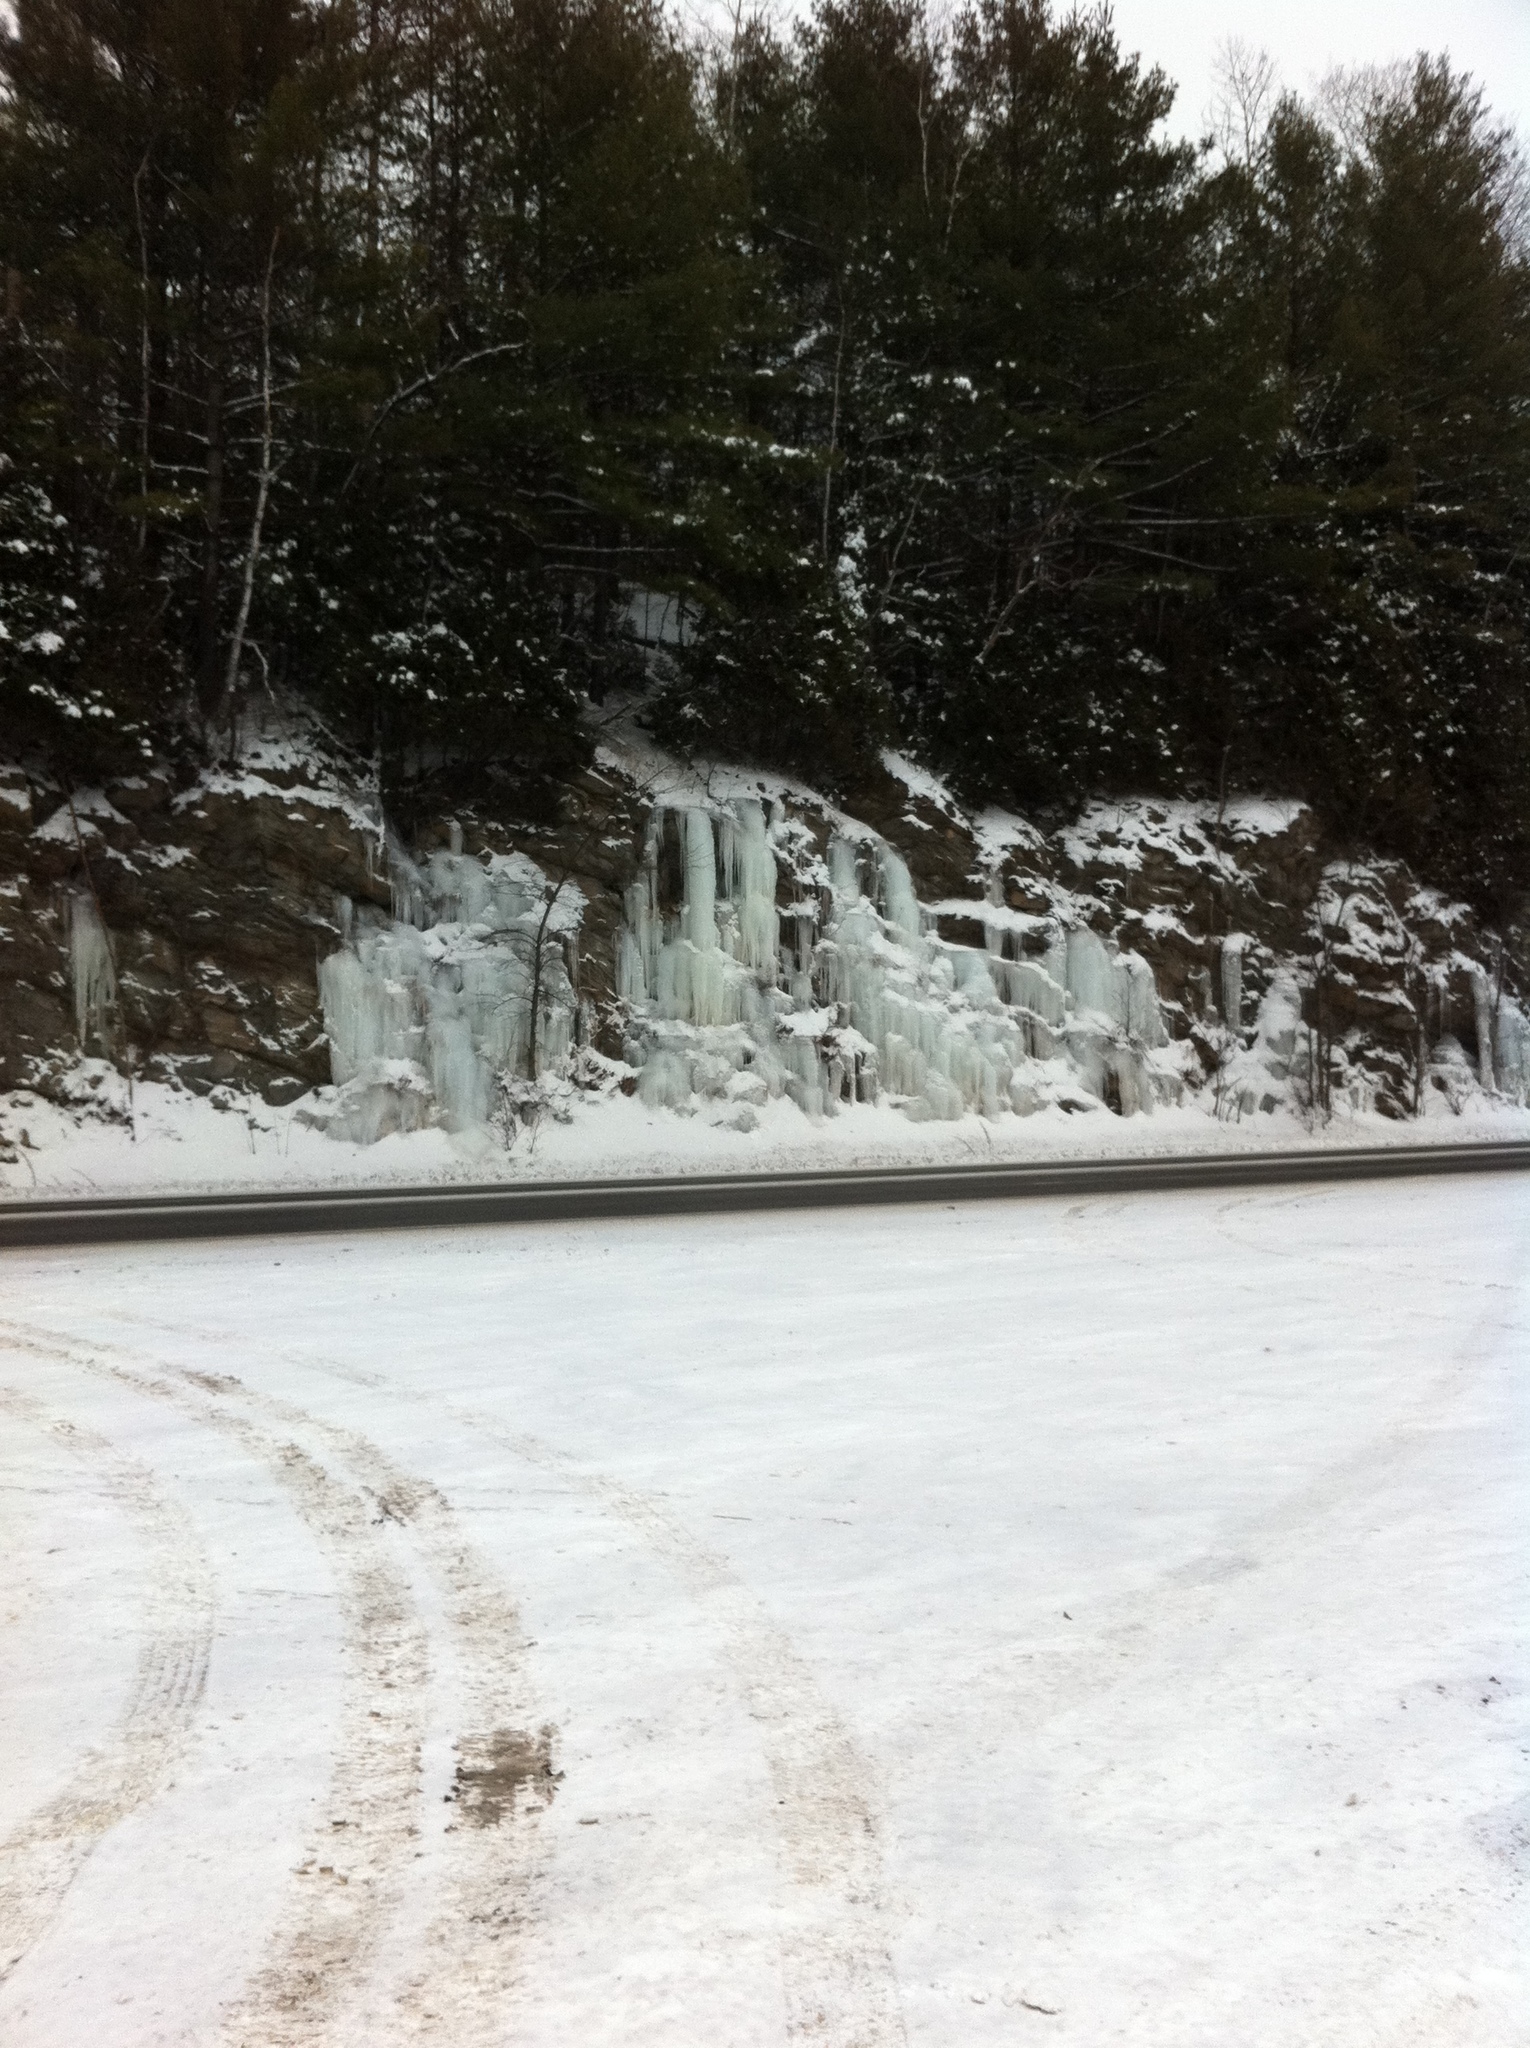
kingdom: Plantae
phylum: Tracheophyta
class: Pinopsida
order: Pinales
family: Pinaceae
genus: Pinus
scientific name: Pinus strobus
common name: Weymouth pine
